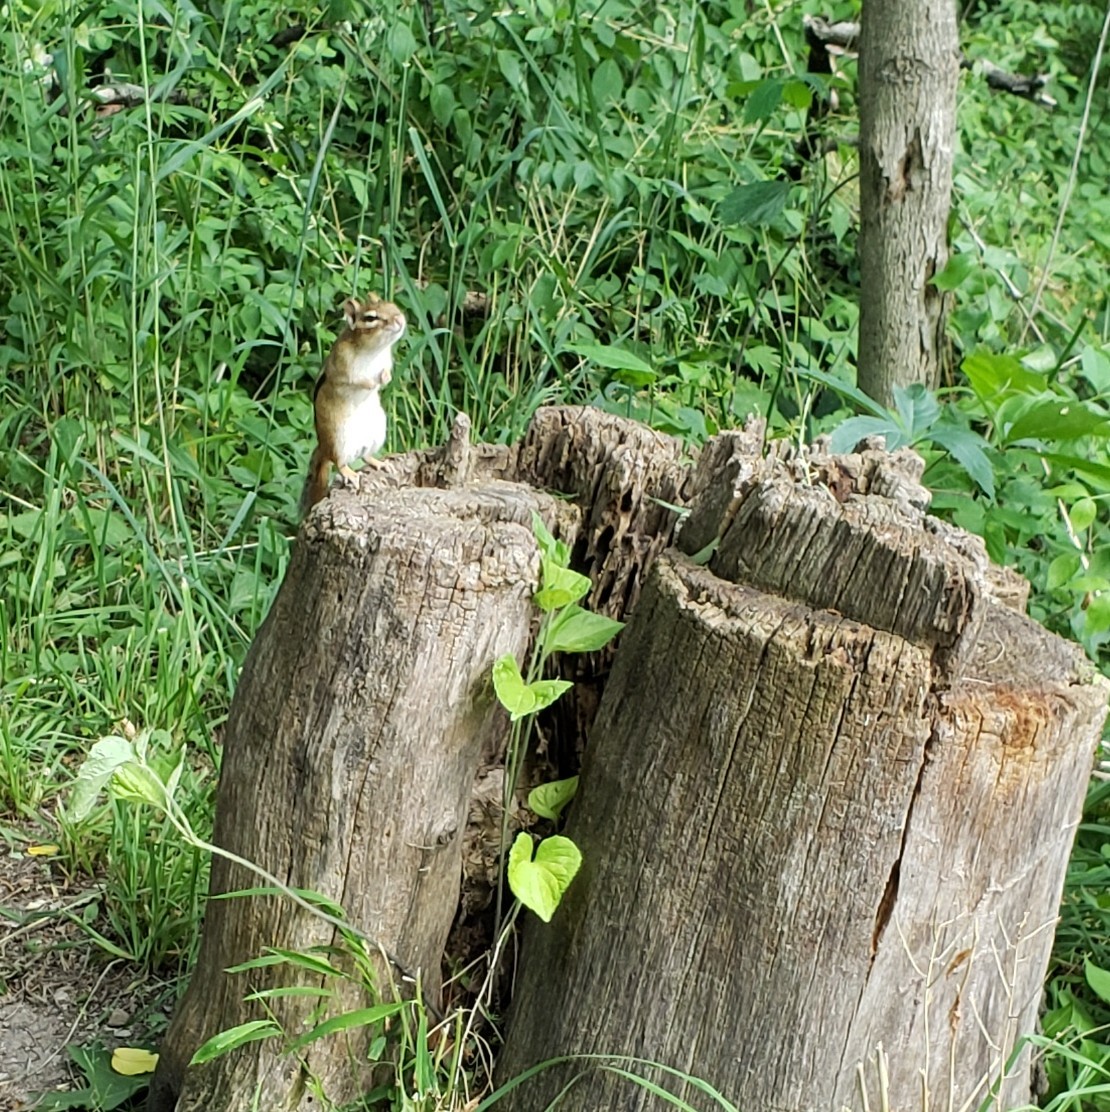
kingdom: Animalia
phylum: Chordata
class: Mammalia
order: Rodentia
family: Sciuridae
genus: Tamias
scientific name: Tamias striatus
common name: Eastern chipmunk
